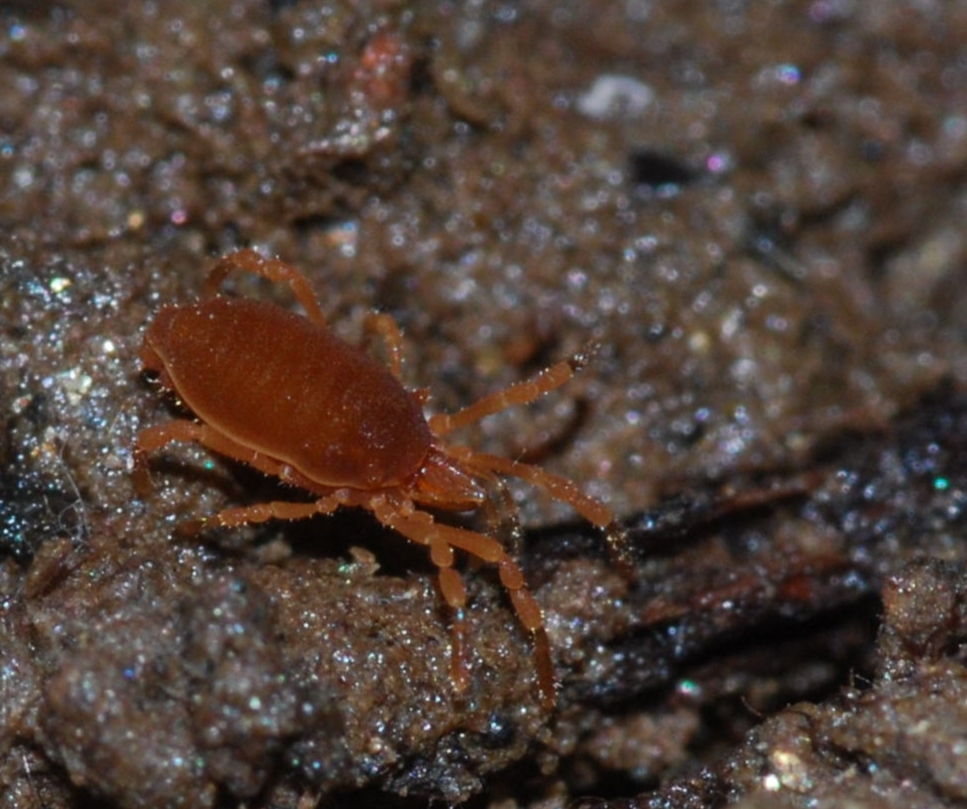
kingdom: Animalia
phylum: Arthropoda
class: Arachnida
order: Opiliones
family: Sironidae
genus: Siro
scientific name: Siro rubens
